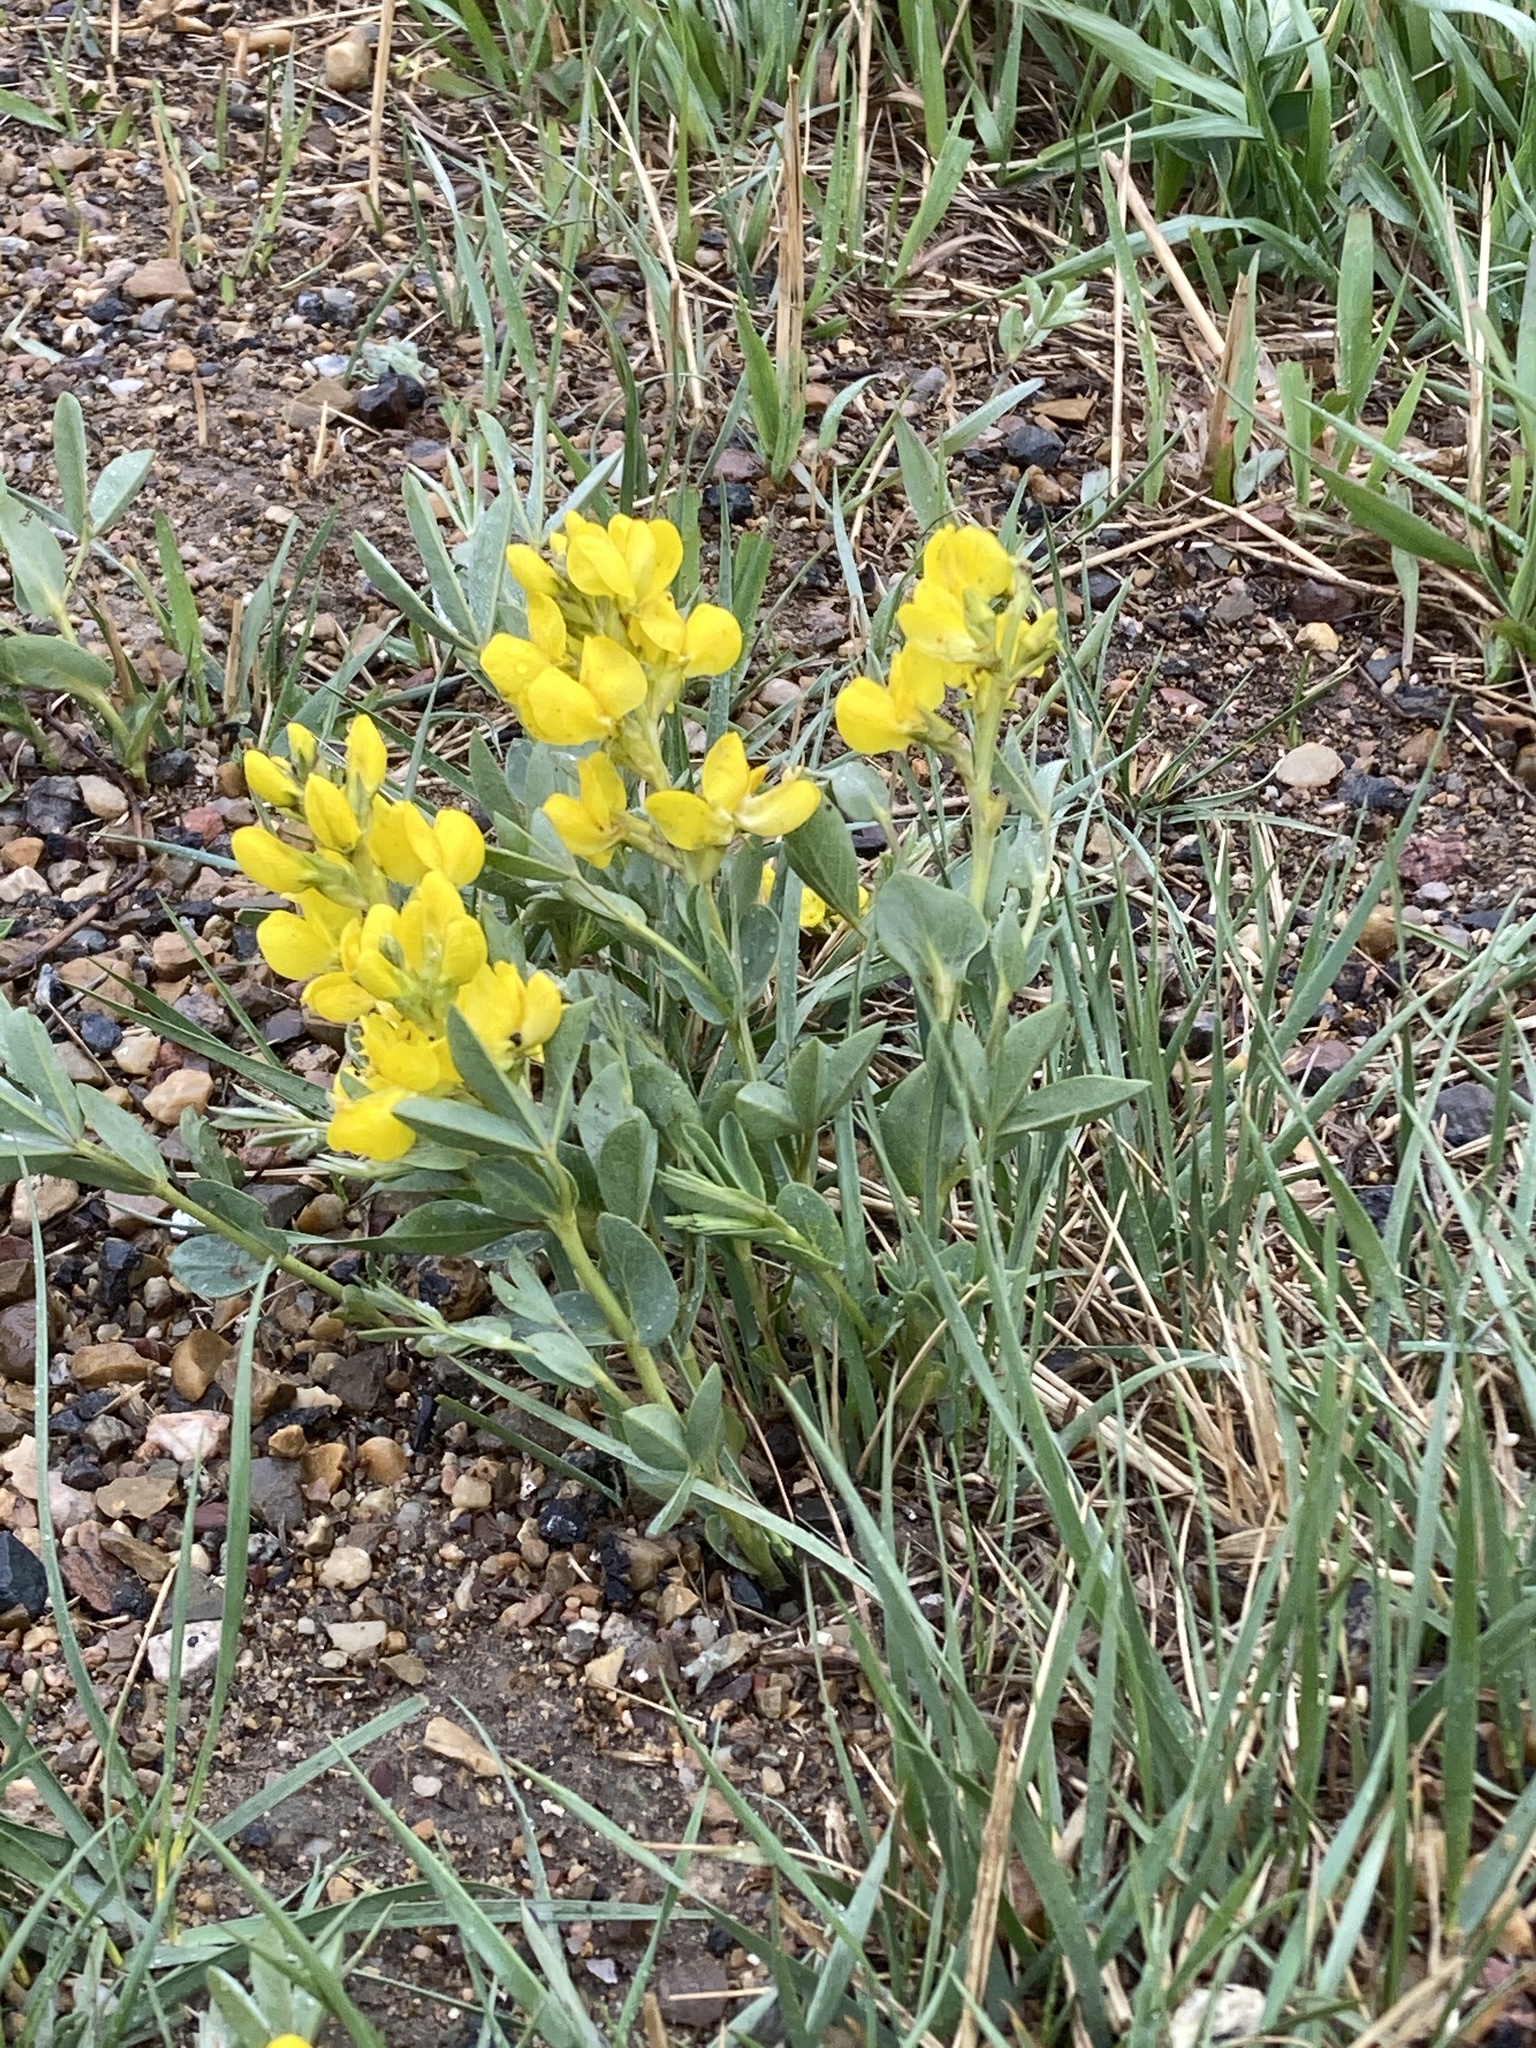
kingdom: Plantae
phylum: Tracheophyta
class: Magnoliopsida
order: Fabales
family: Fabaceae
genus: Thermopsis
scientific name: Thermopsis rhombifolia
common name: Circle-pod-pea
